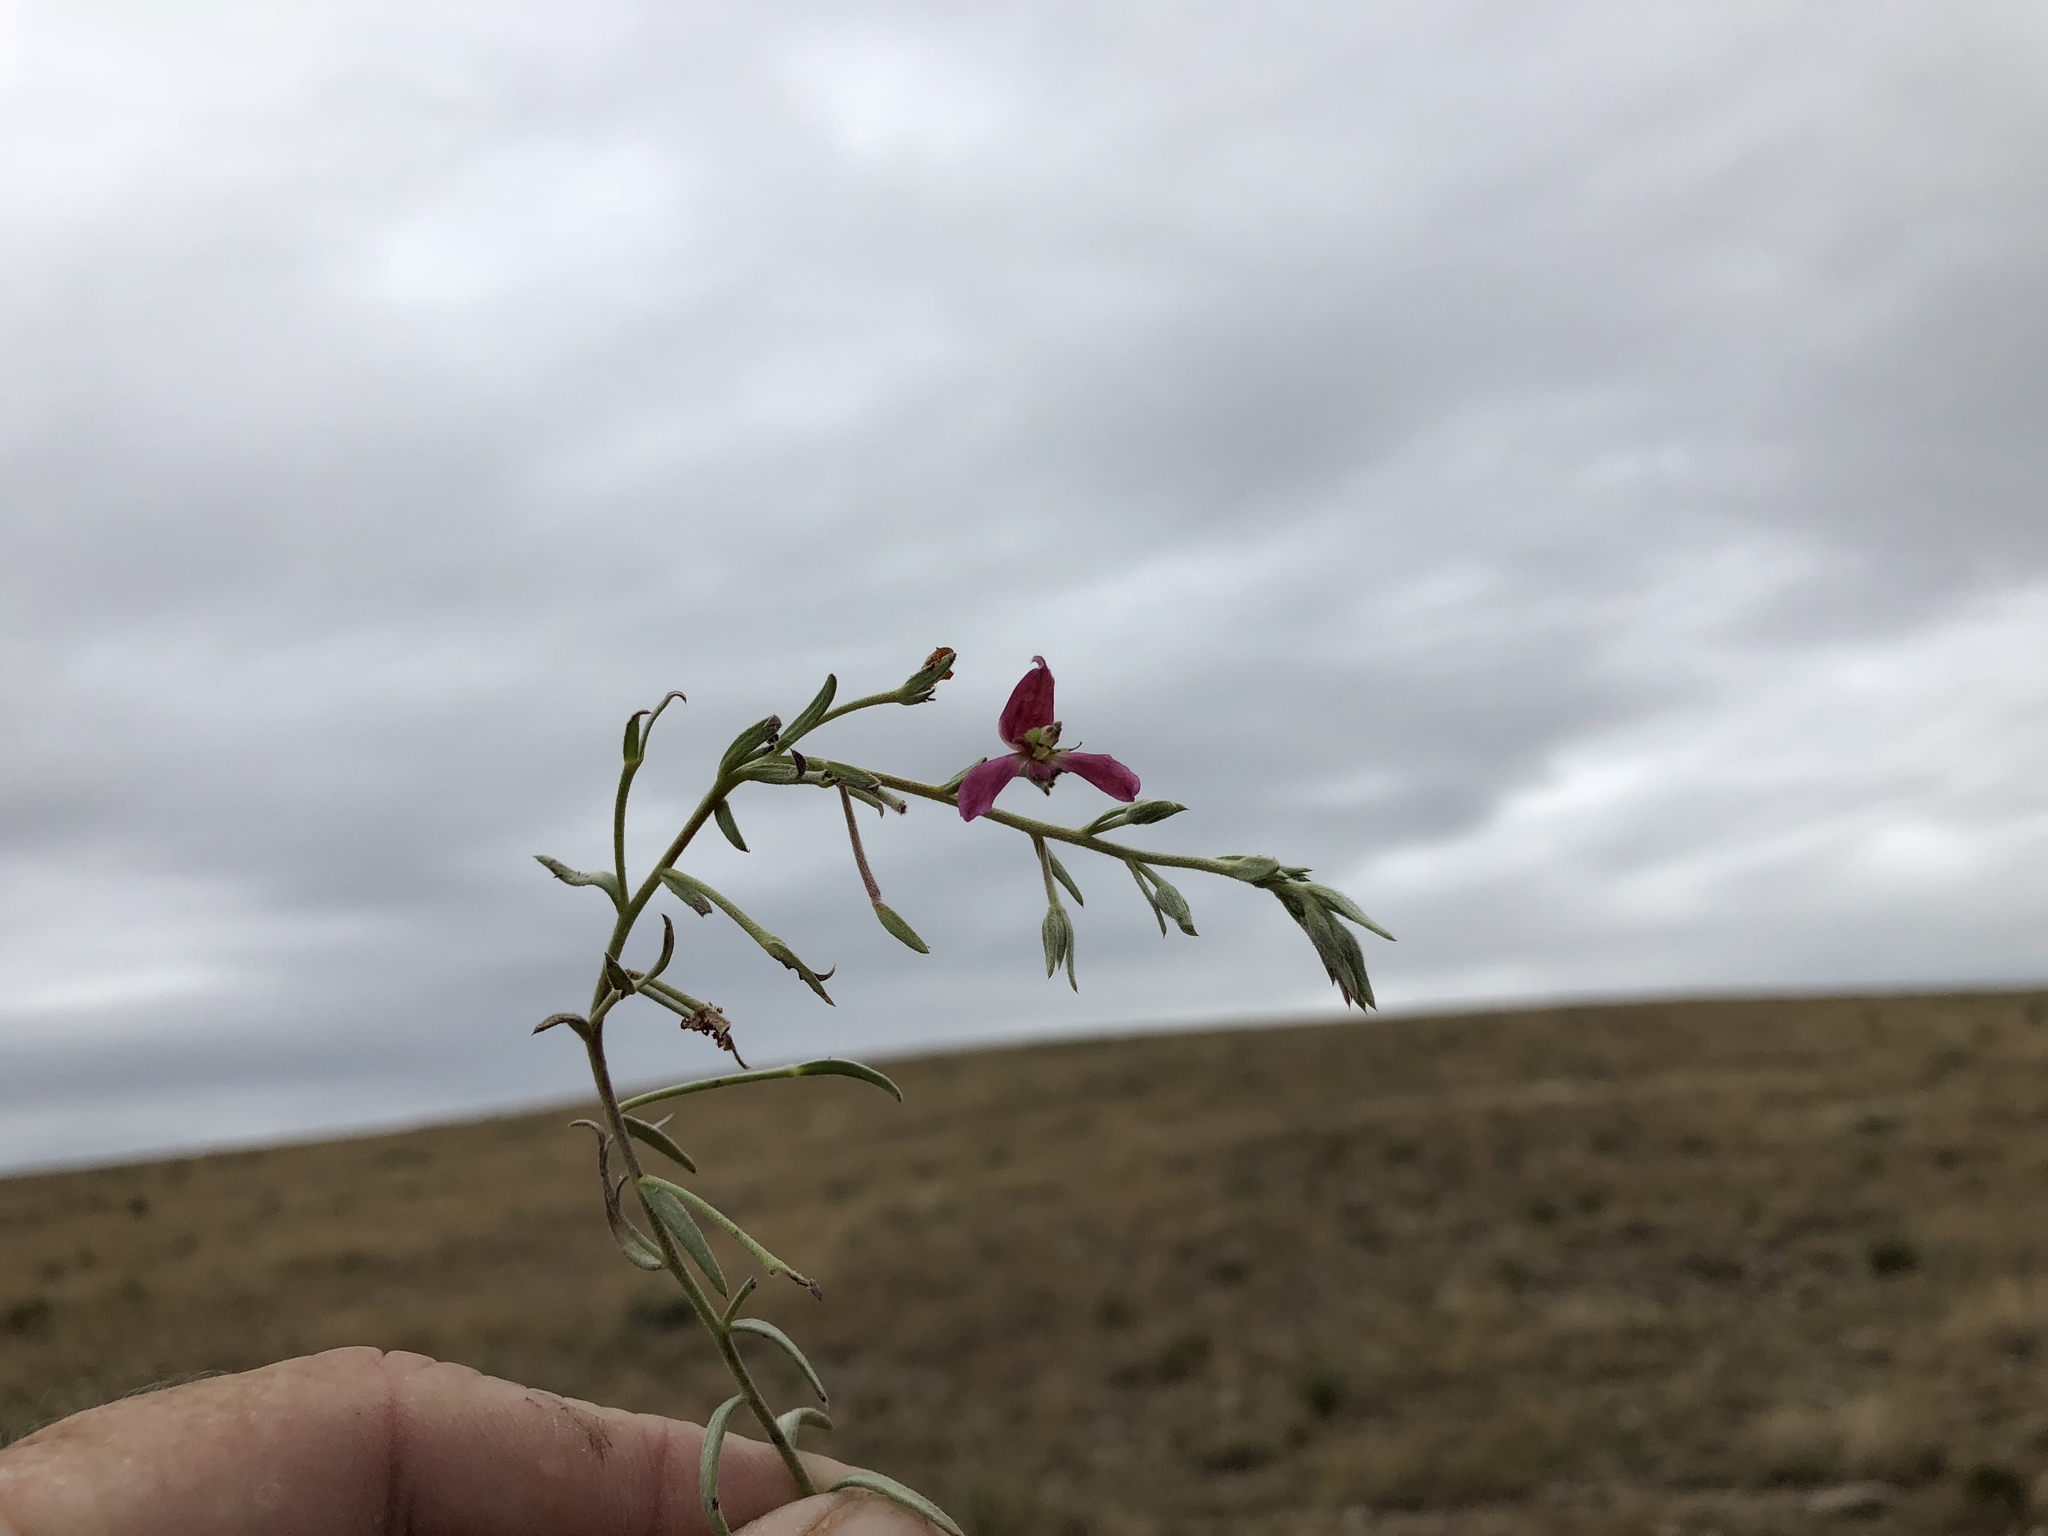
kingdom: Plantae
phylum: Tracheophyta
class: Magnoliopsida
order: Zygophyllales
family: Krameriaceae
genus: Krameria
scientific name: Krameria lanceolata
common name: Ratany
